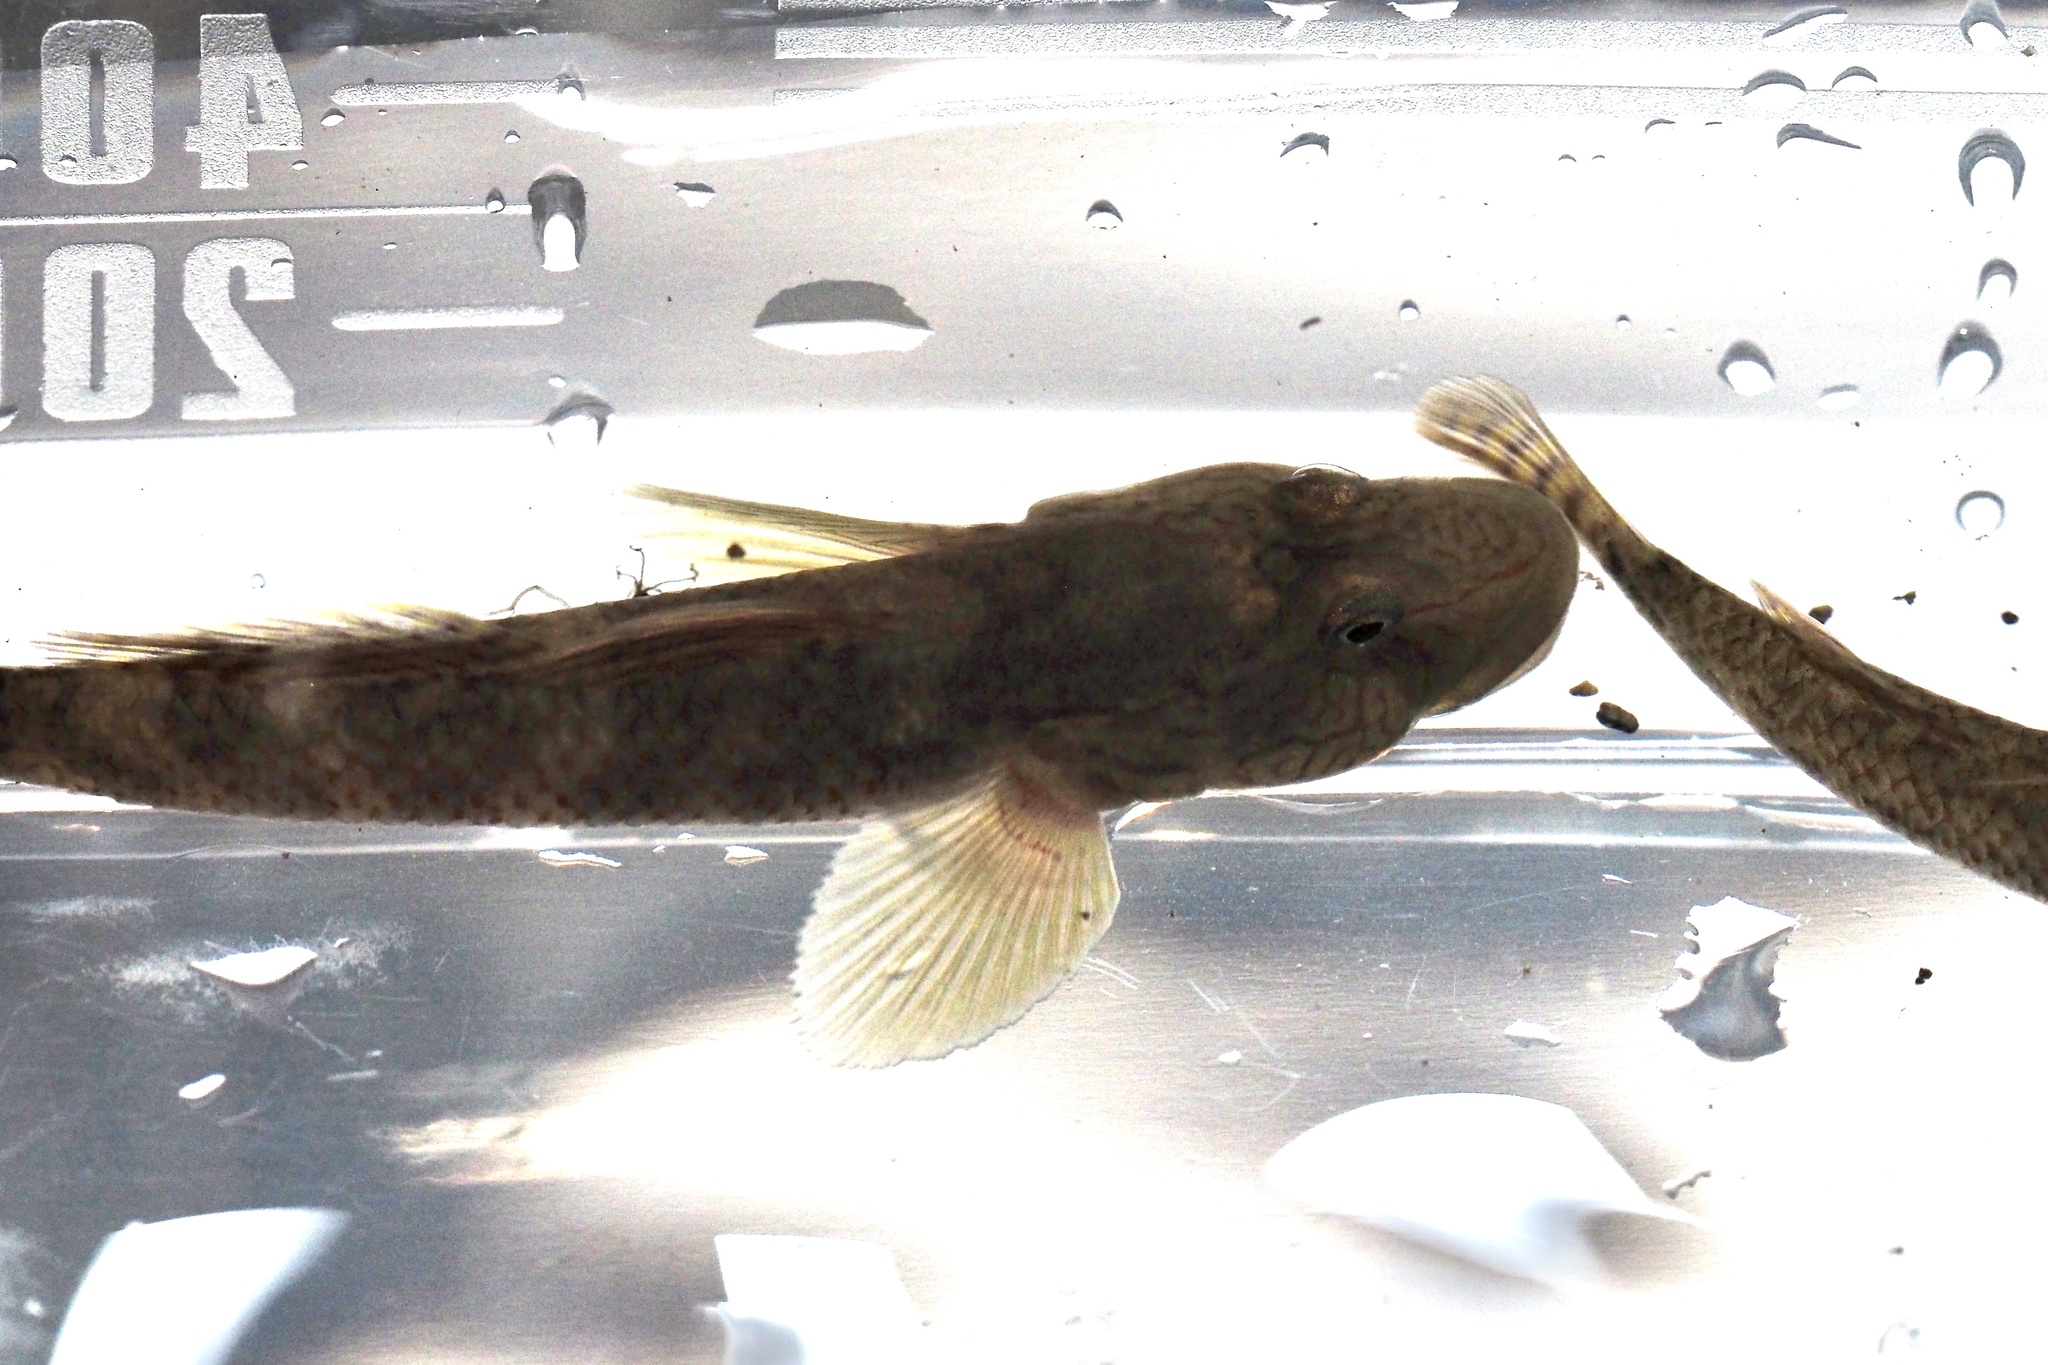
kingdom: Animalia
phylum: Chordata
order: Perciformes
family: Gobiidae
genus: Rhinogobius
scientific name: Rhinogobius nagoyae
